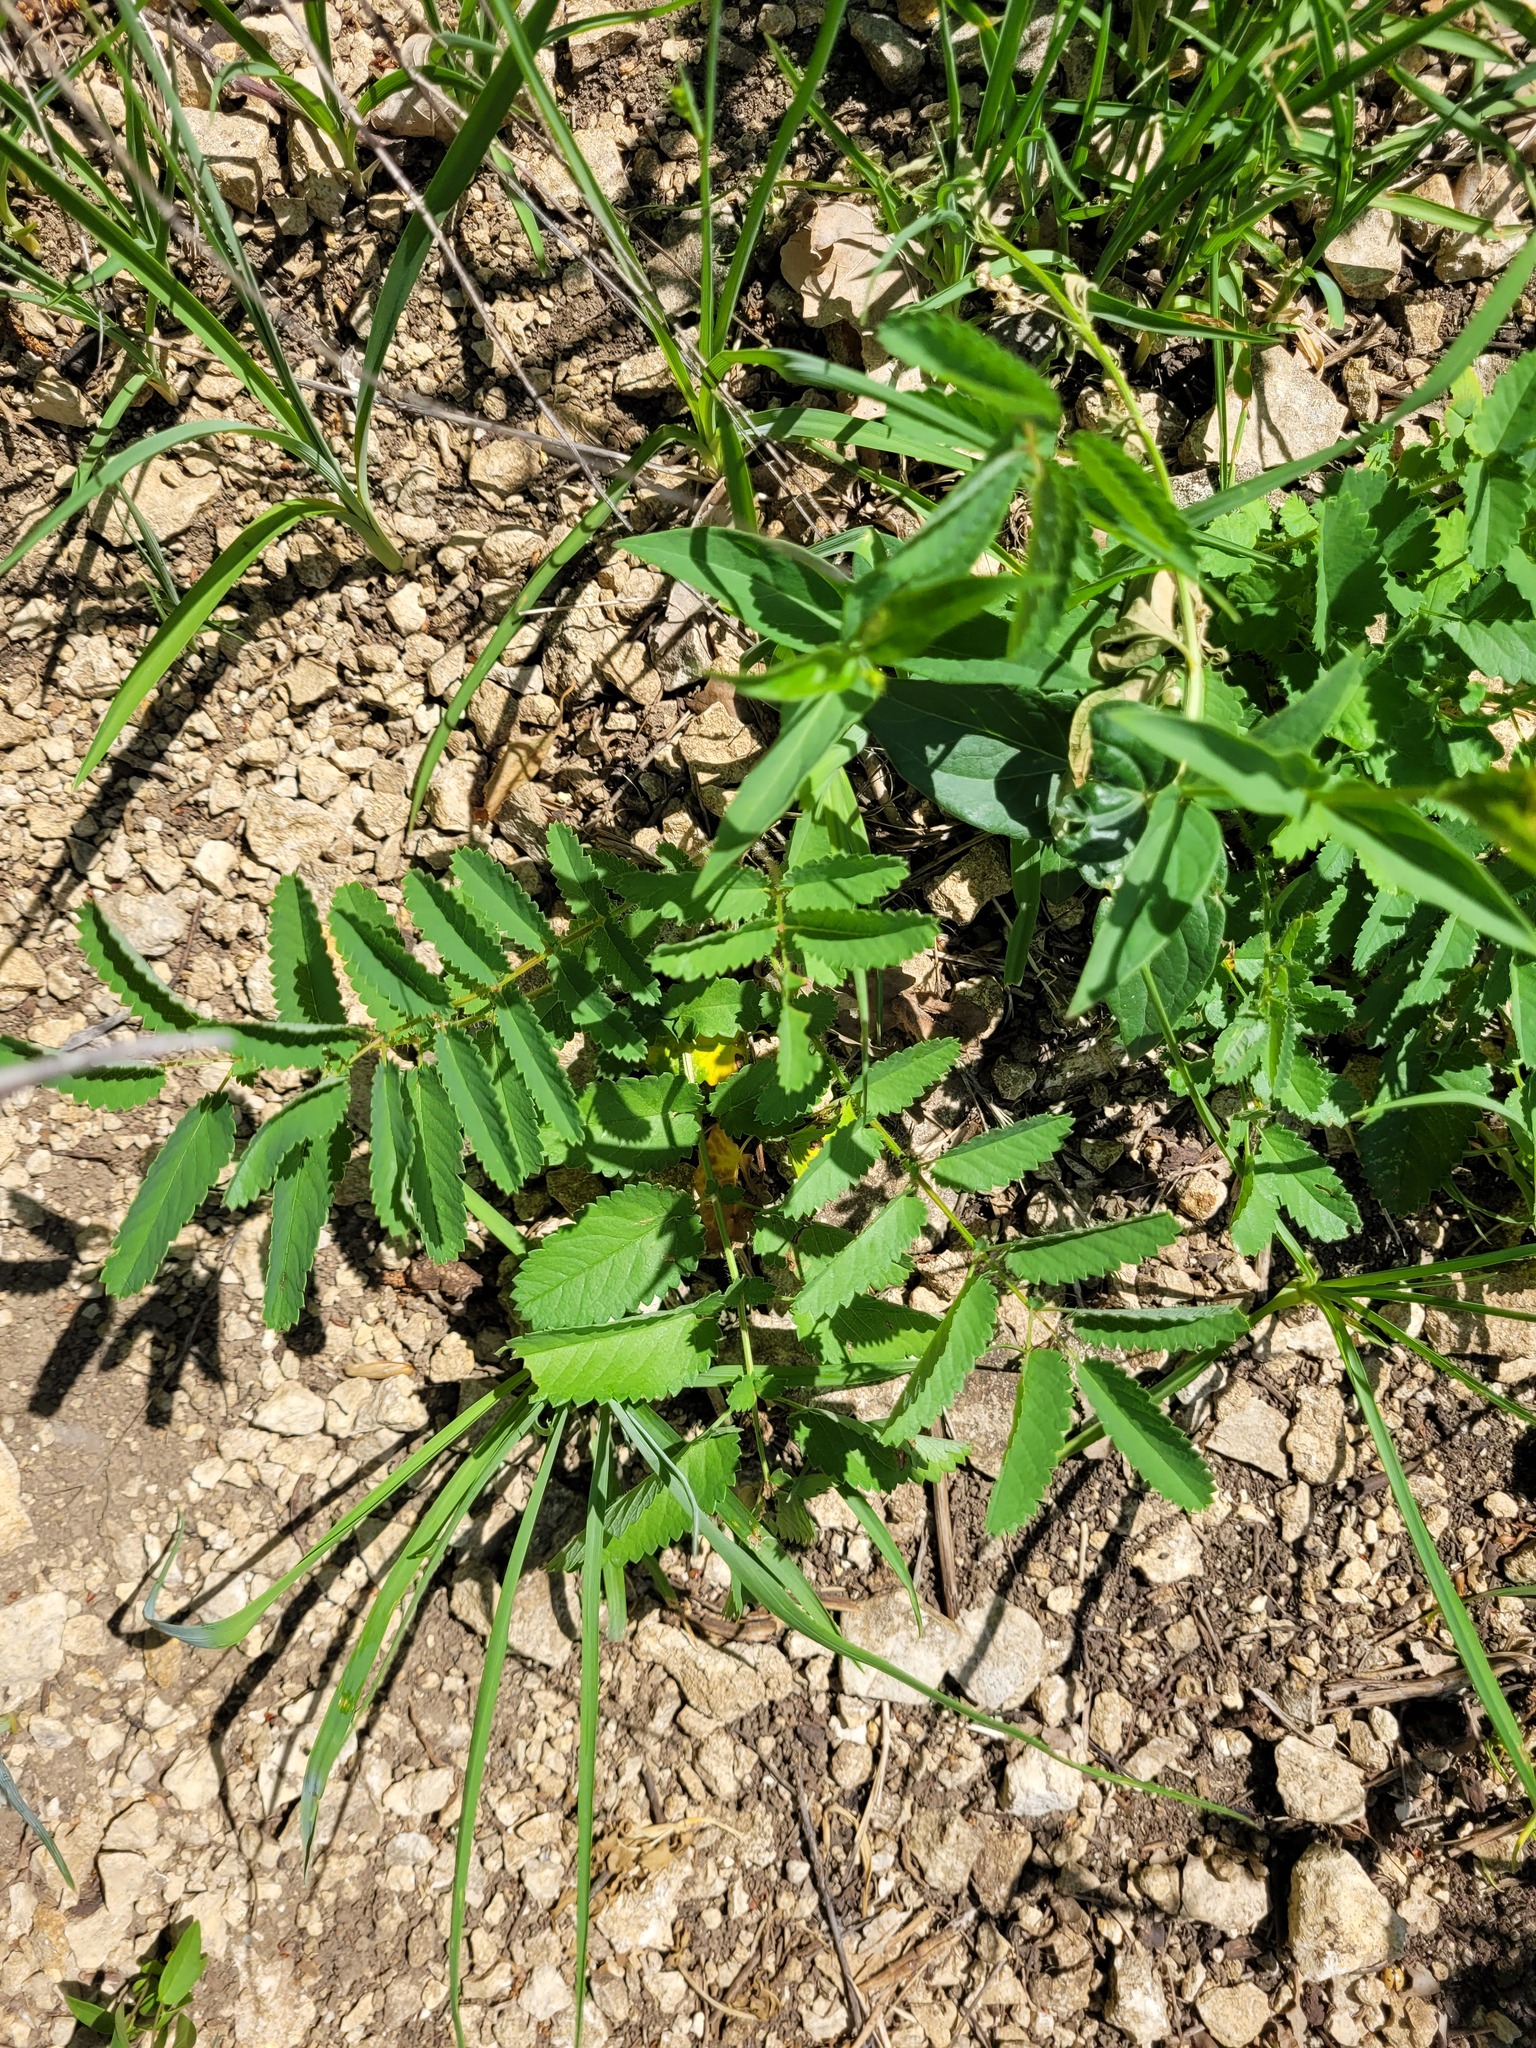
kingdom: Plantae
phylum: Tracheophyta
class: Magnoliopsida
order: Rosales
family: Rosaceae
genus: Sanguisorba
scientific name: Sanguisorba officinalis
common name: Great burnet
